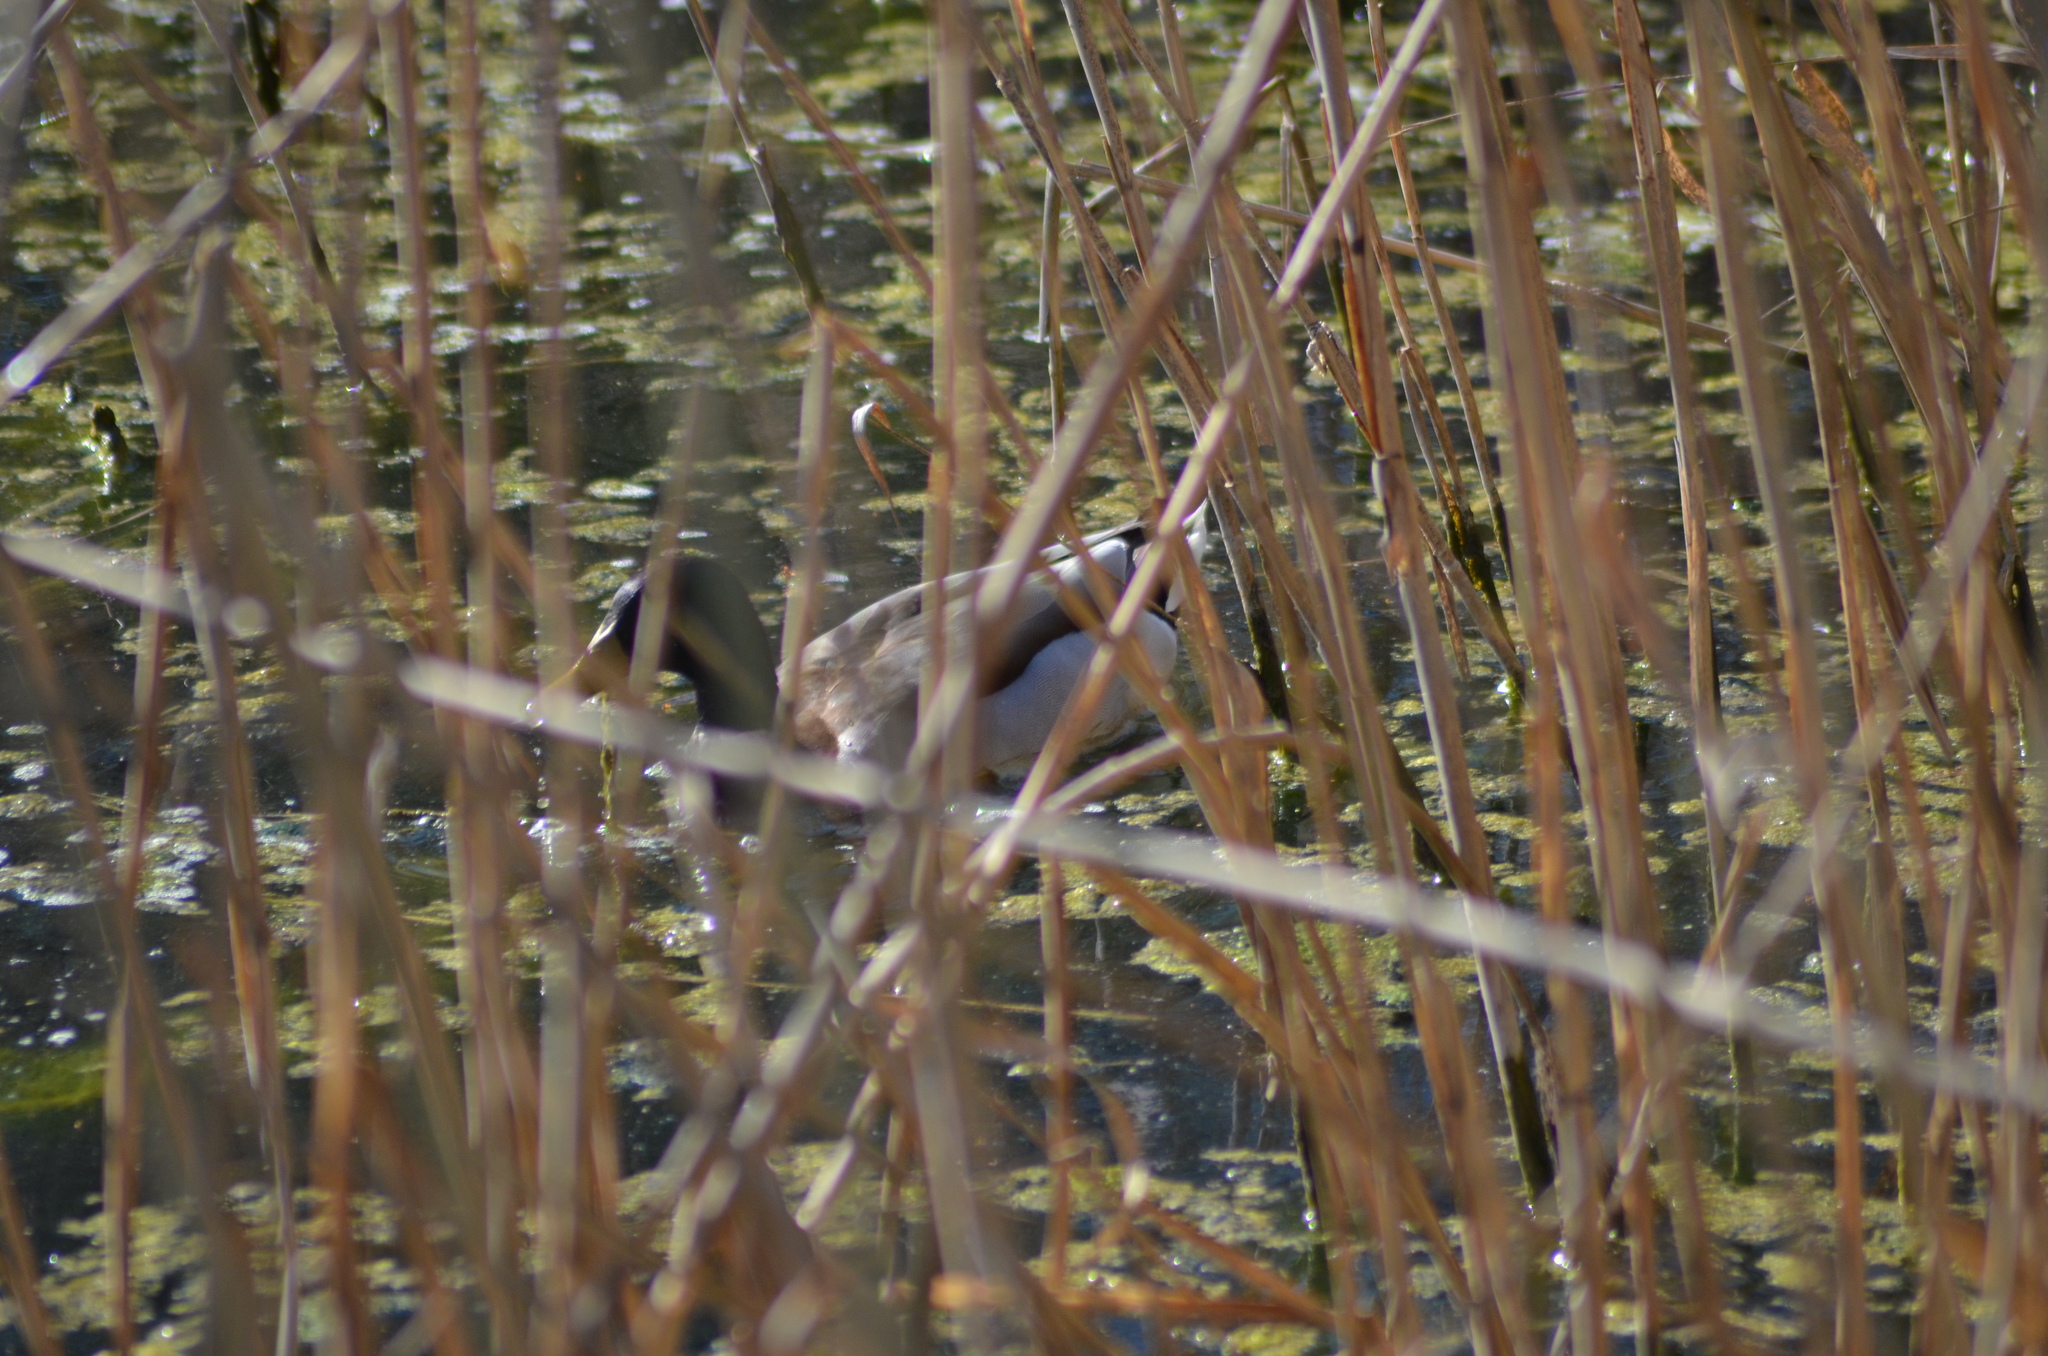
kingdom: Animalia
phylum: Chordata
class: Aves
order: Anseriformes
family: Anatidae
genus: Anas
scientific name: Anas platyrhynchos
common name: Mallard
